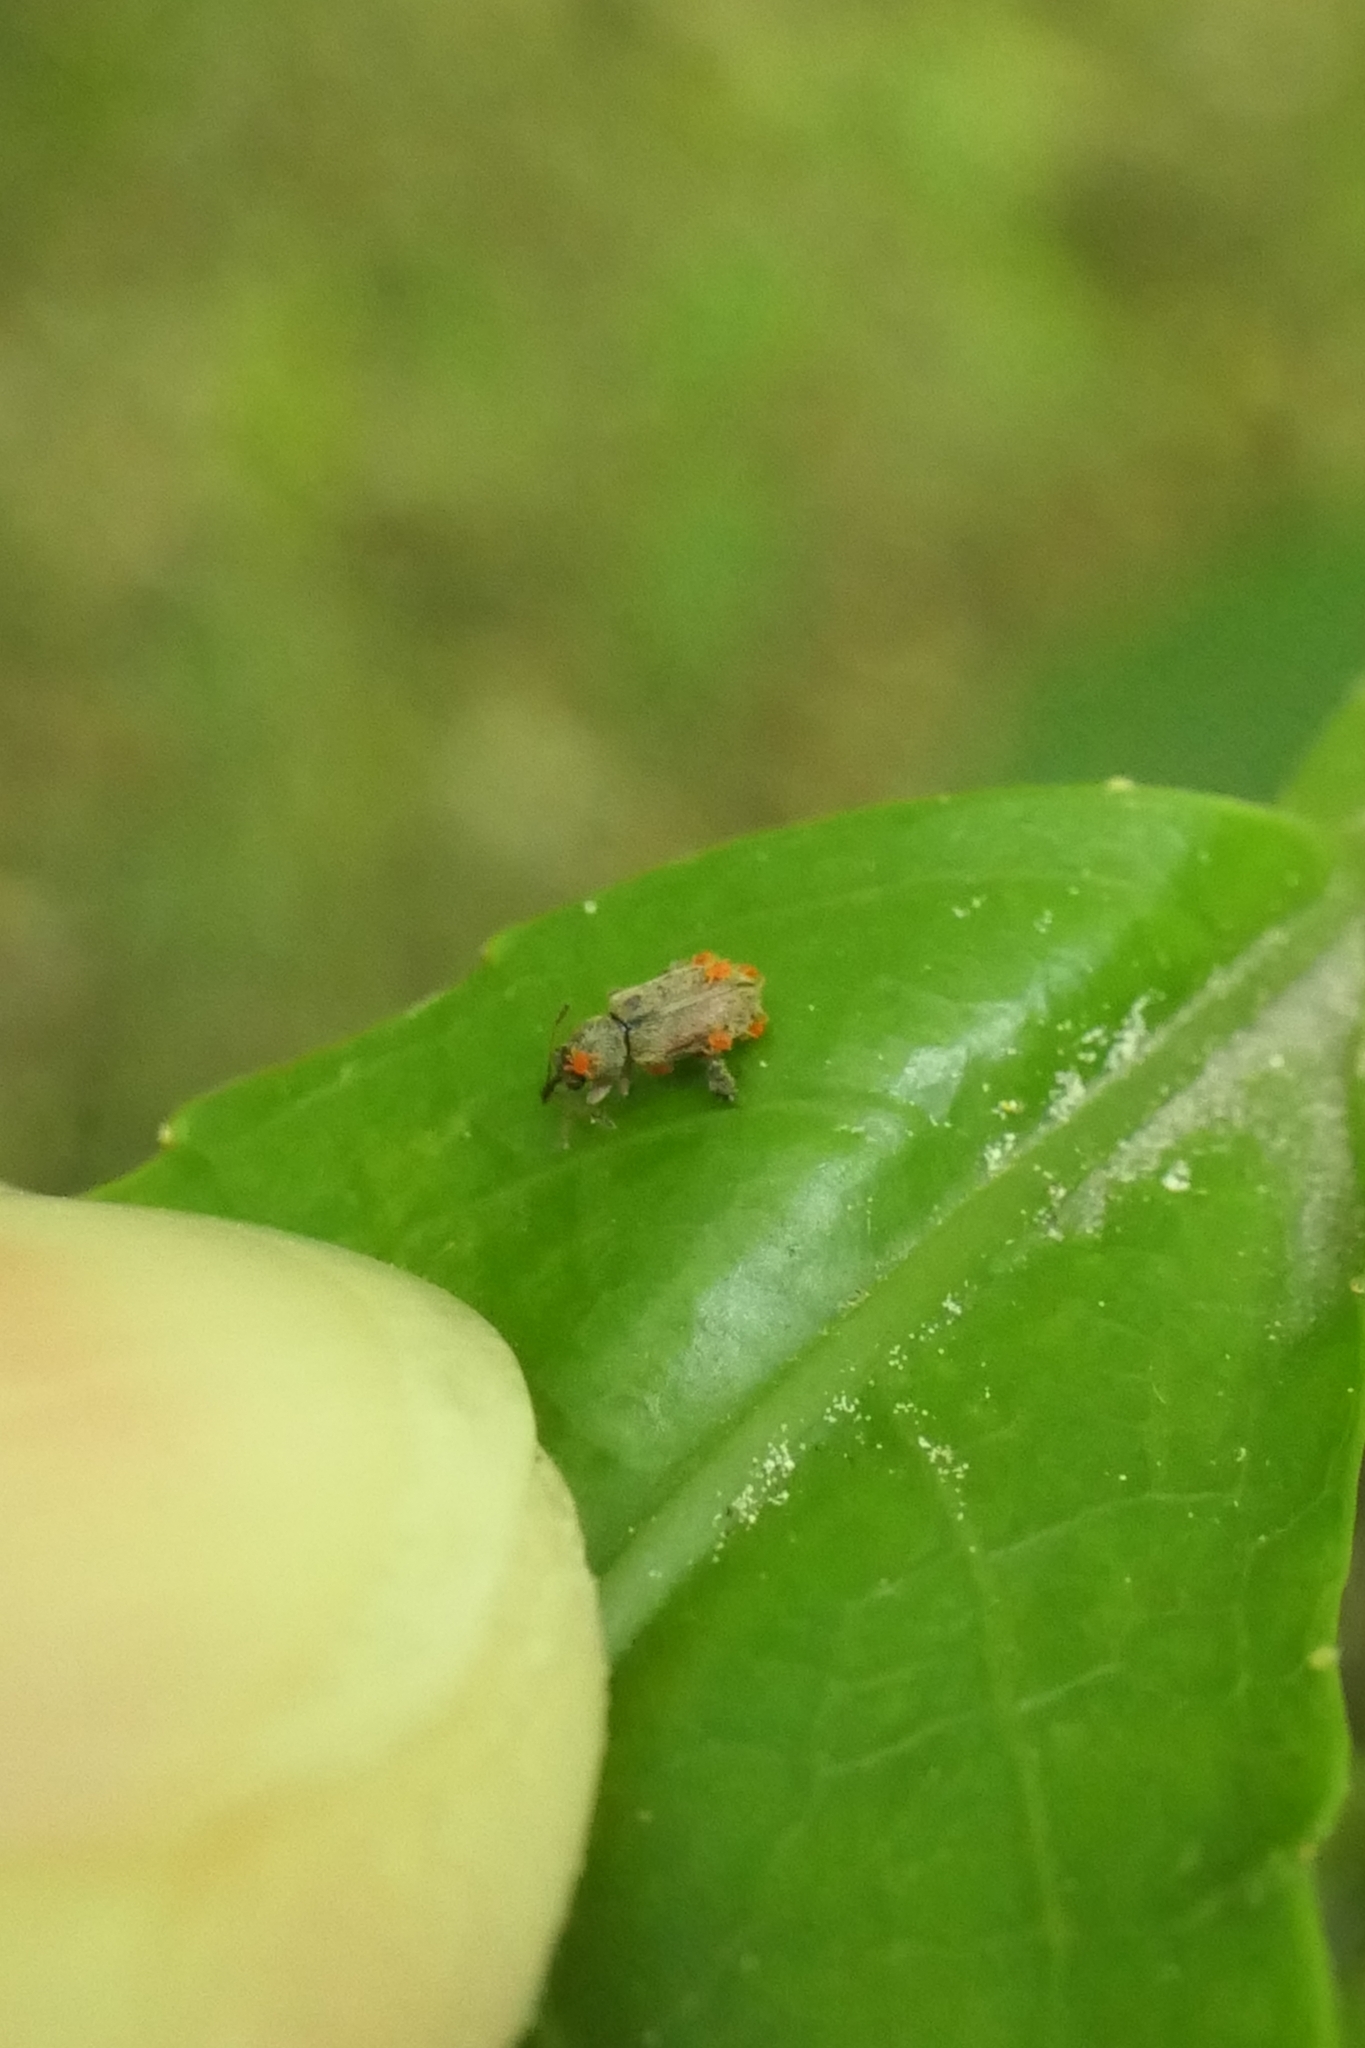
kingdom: Animalia
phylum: Arthropoda
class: Insecta
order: Coleoptera
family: Nemonychidae
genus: Rhinorhynchus
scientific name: Rhinorhynchus rufulus
